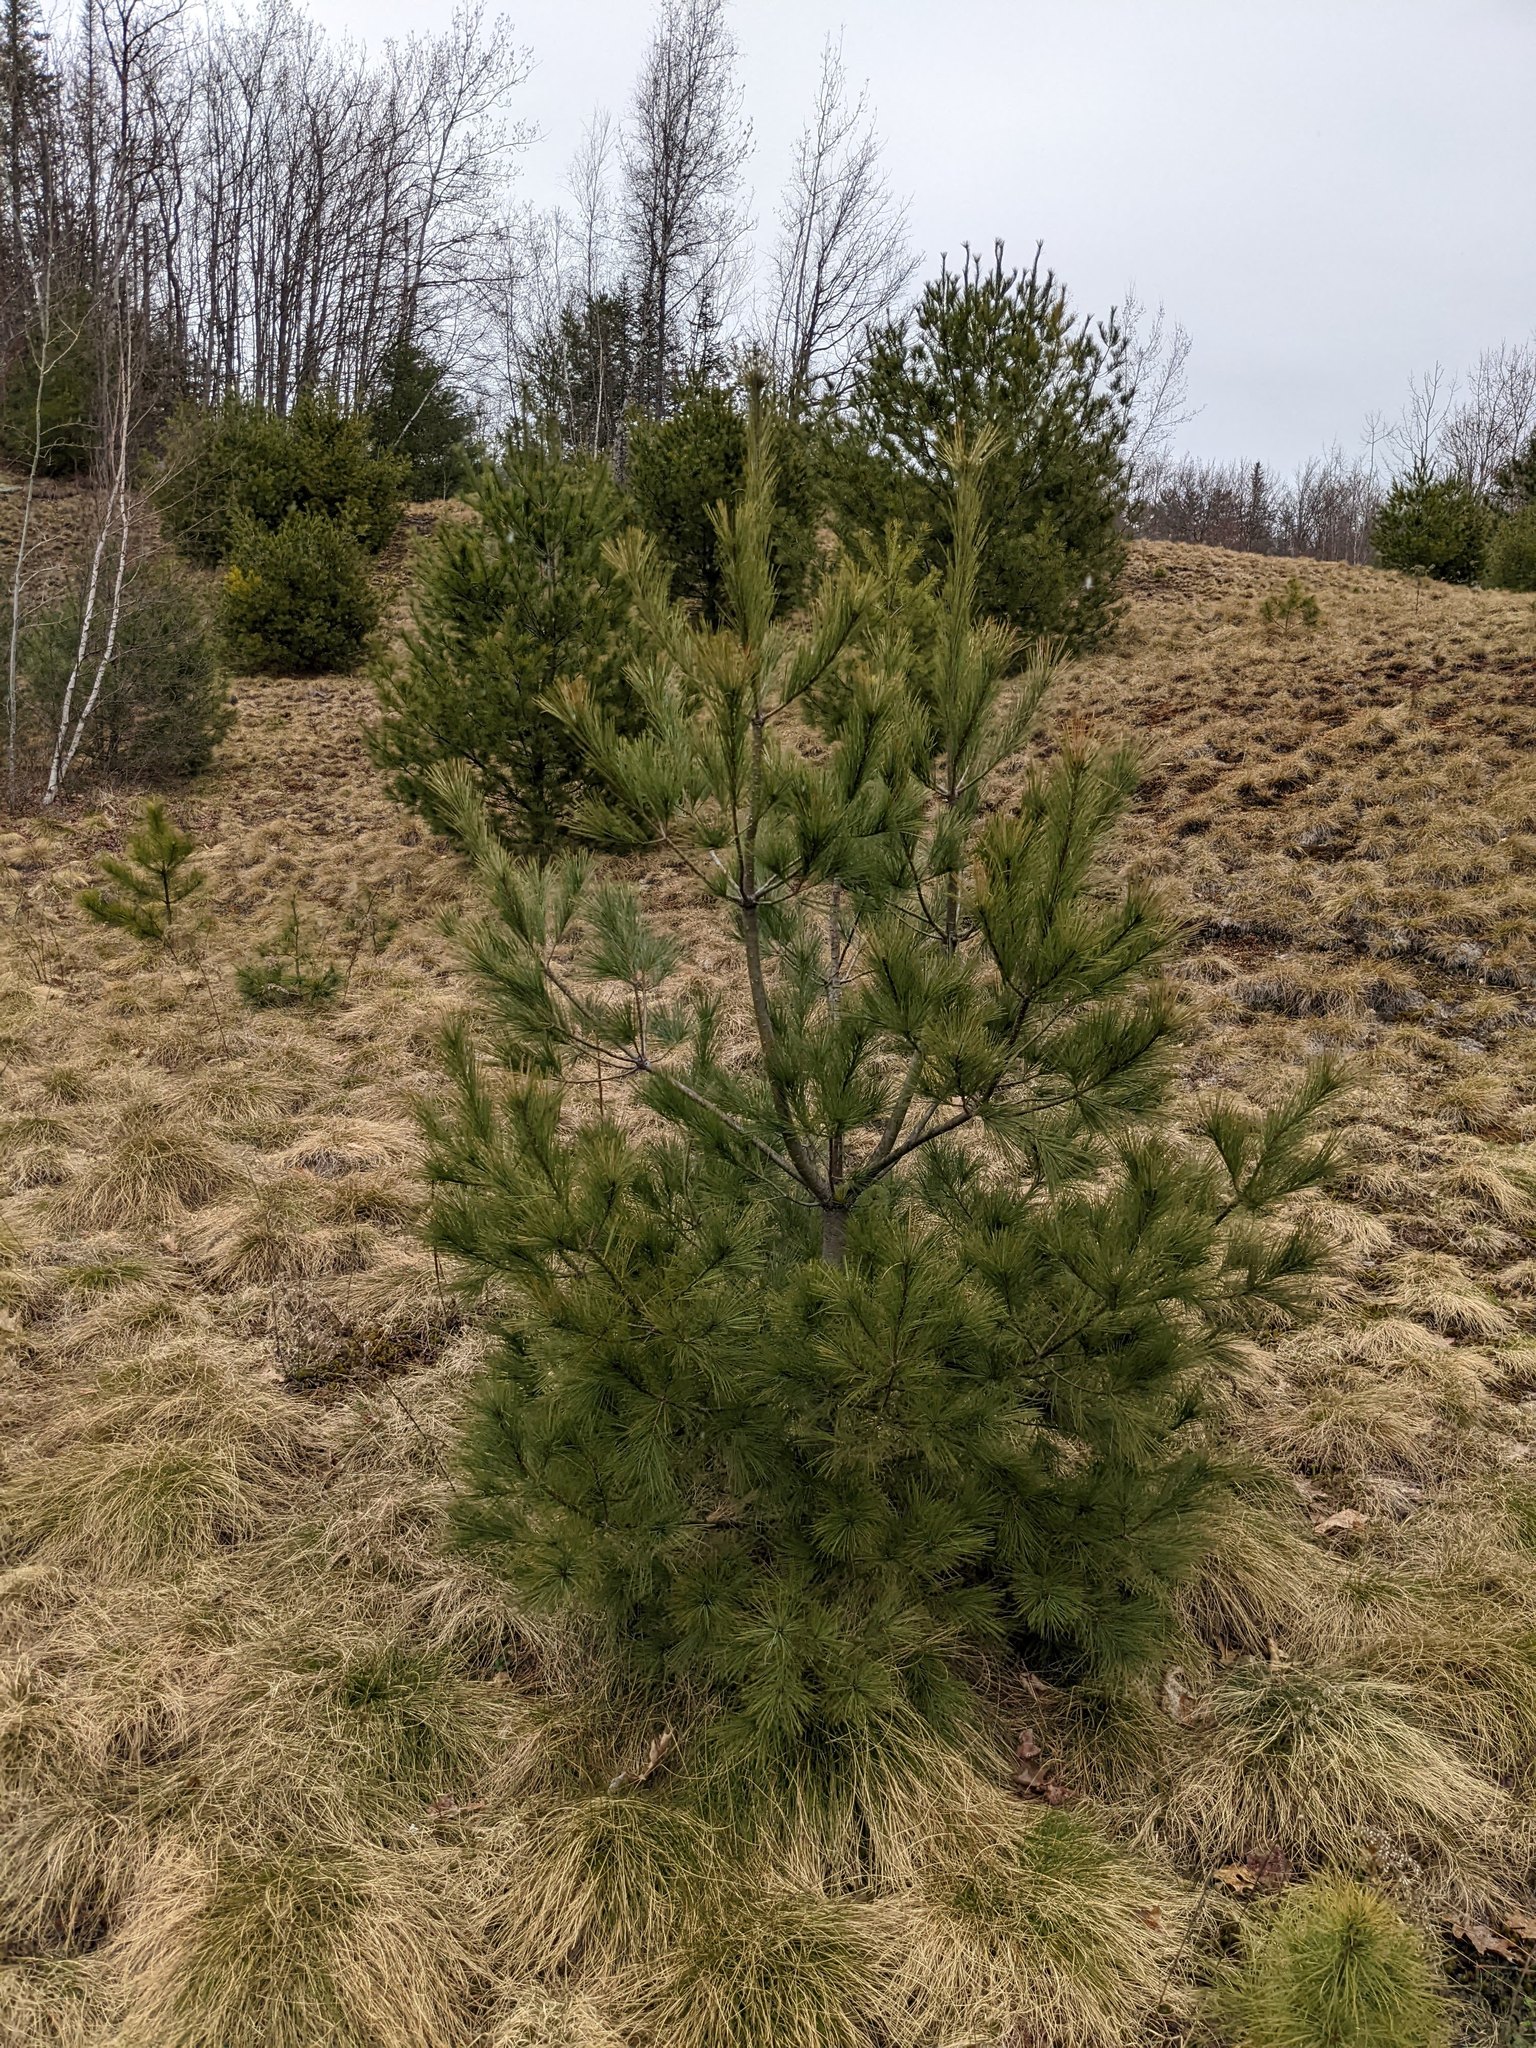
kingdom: Plantae
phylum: Tracheophyta
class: Pinopsida
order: Pinales
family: Pinaceae
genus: Pinus
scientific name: Pinus strobus
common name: Weymouth pine
